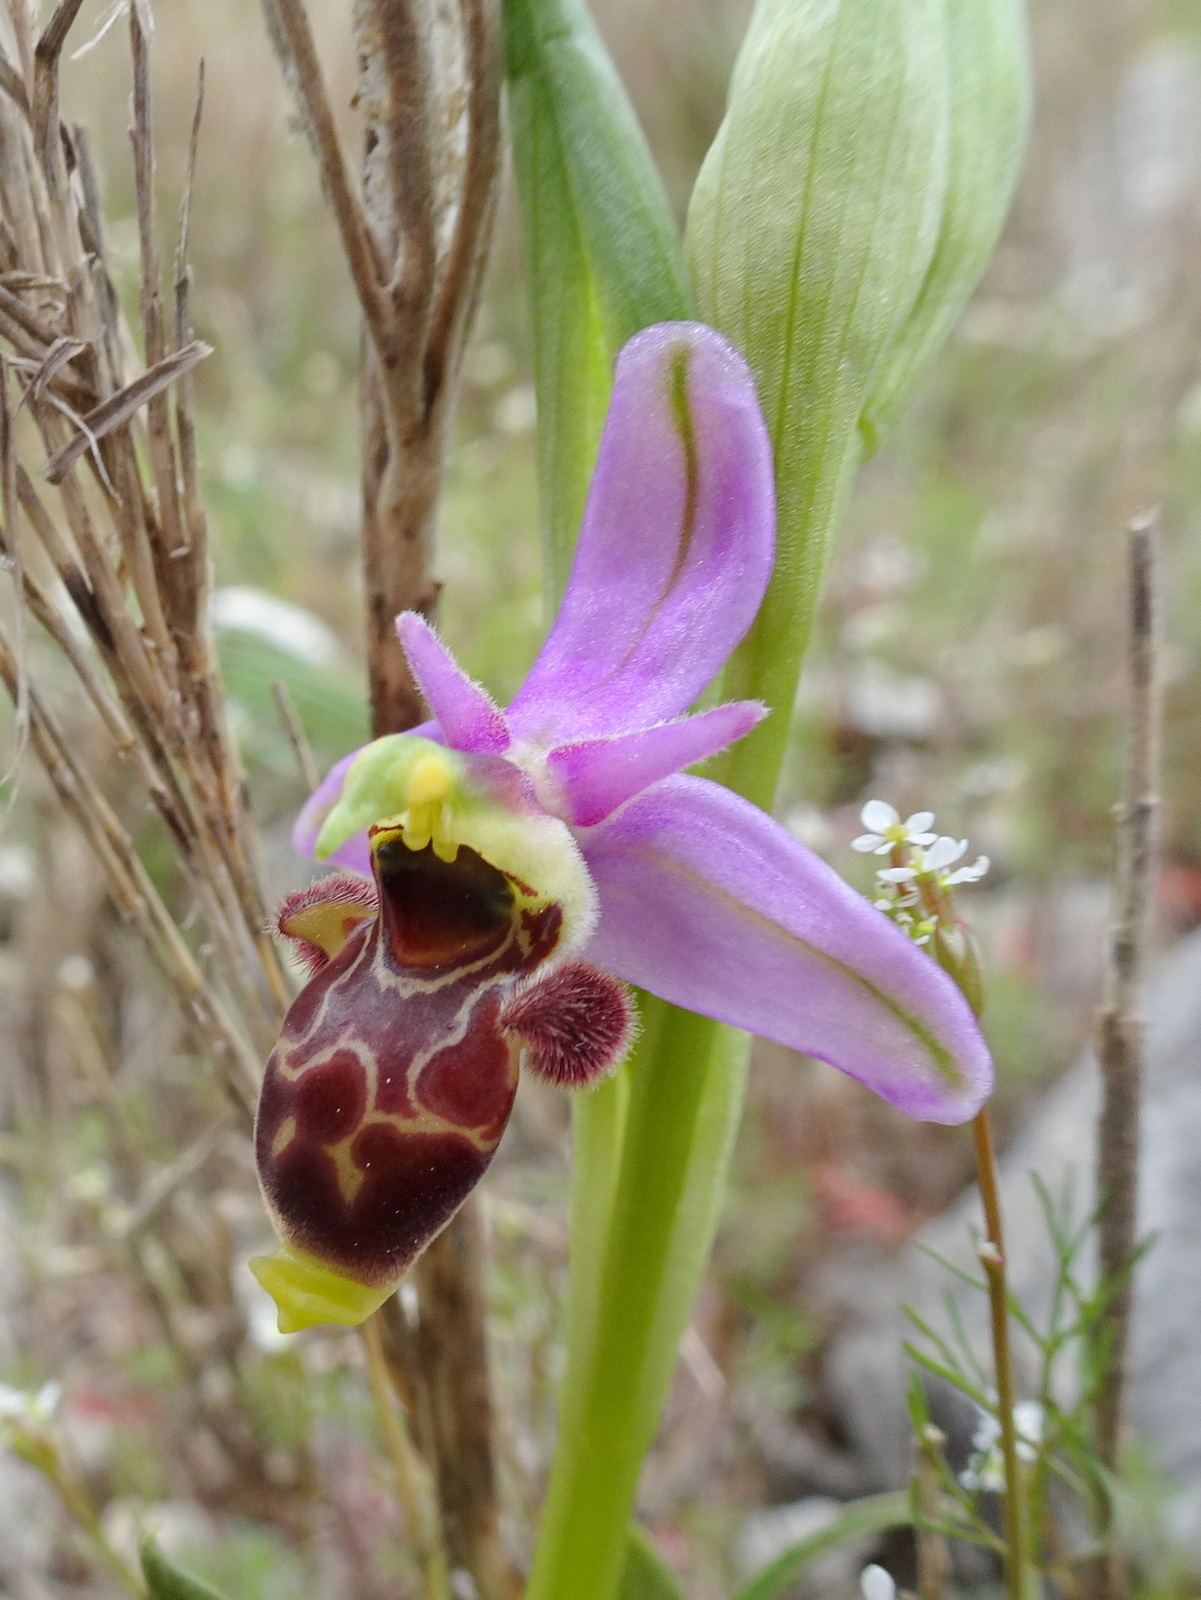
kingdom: Plantae
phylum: Tracheophyta
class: Liliopsida
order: Asparagales
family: Orchidaceae
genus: Ophrys
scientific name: Ophrys scolopax
